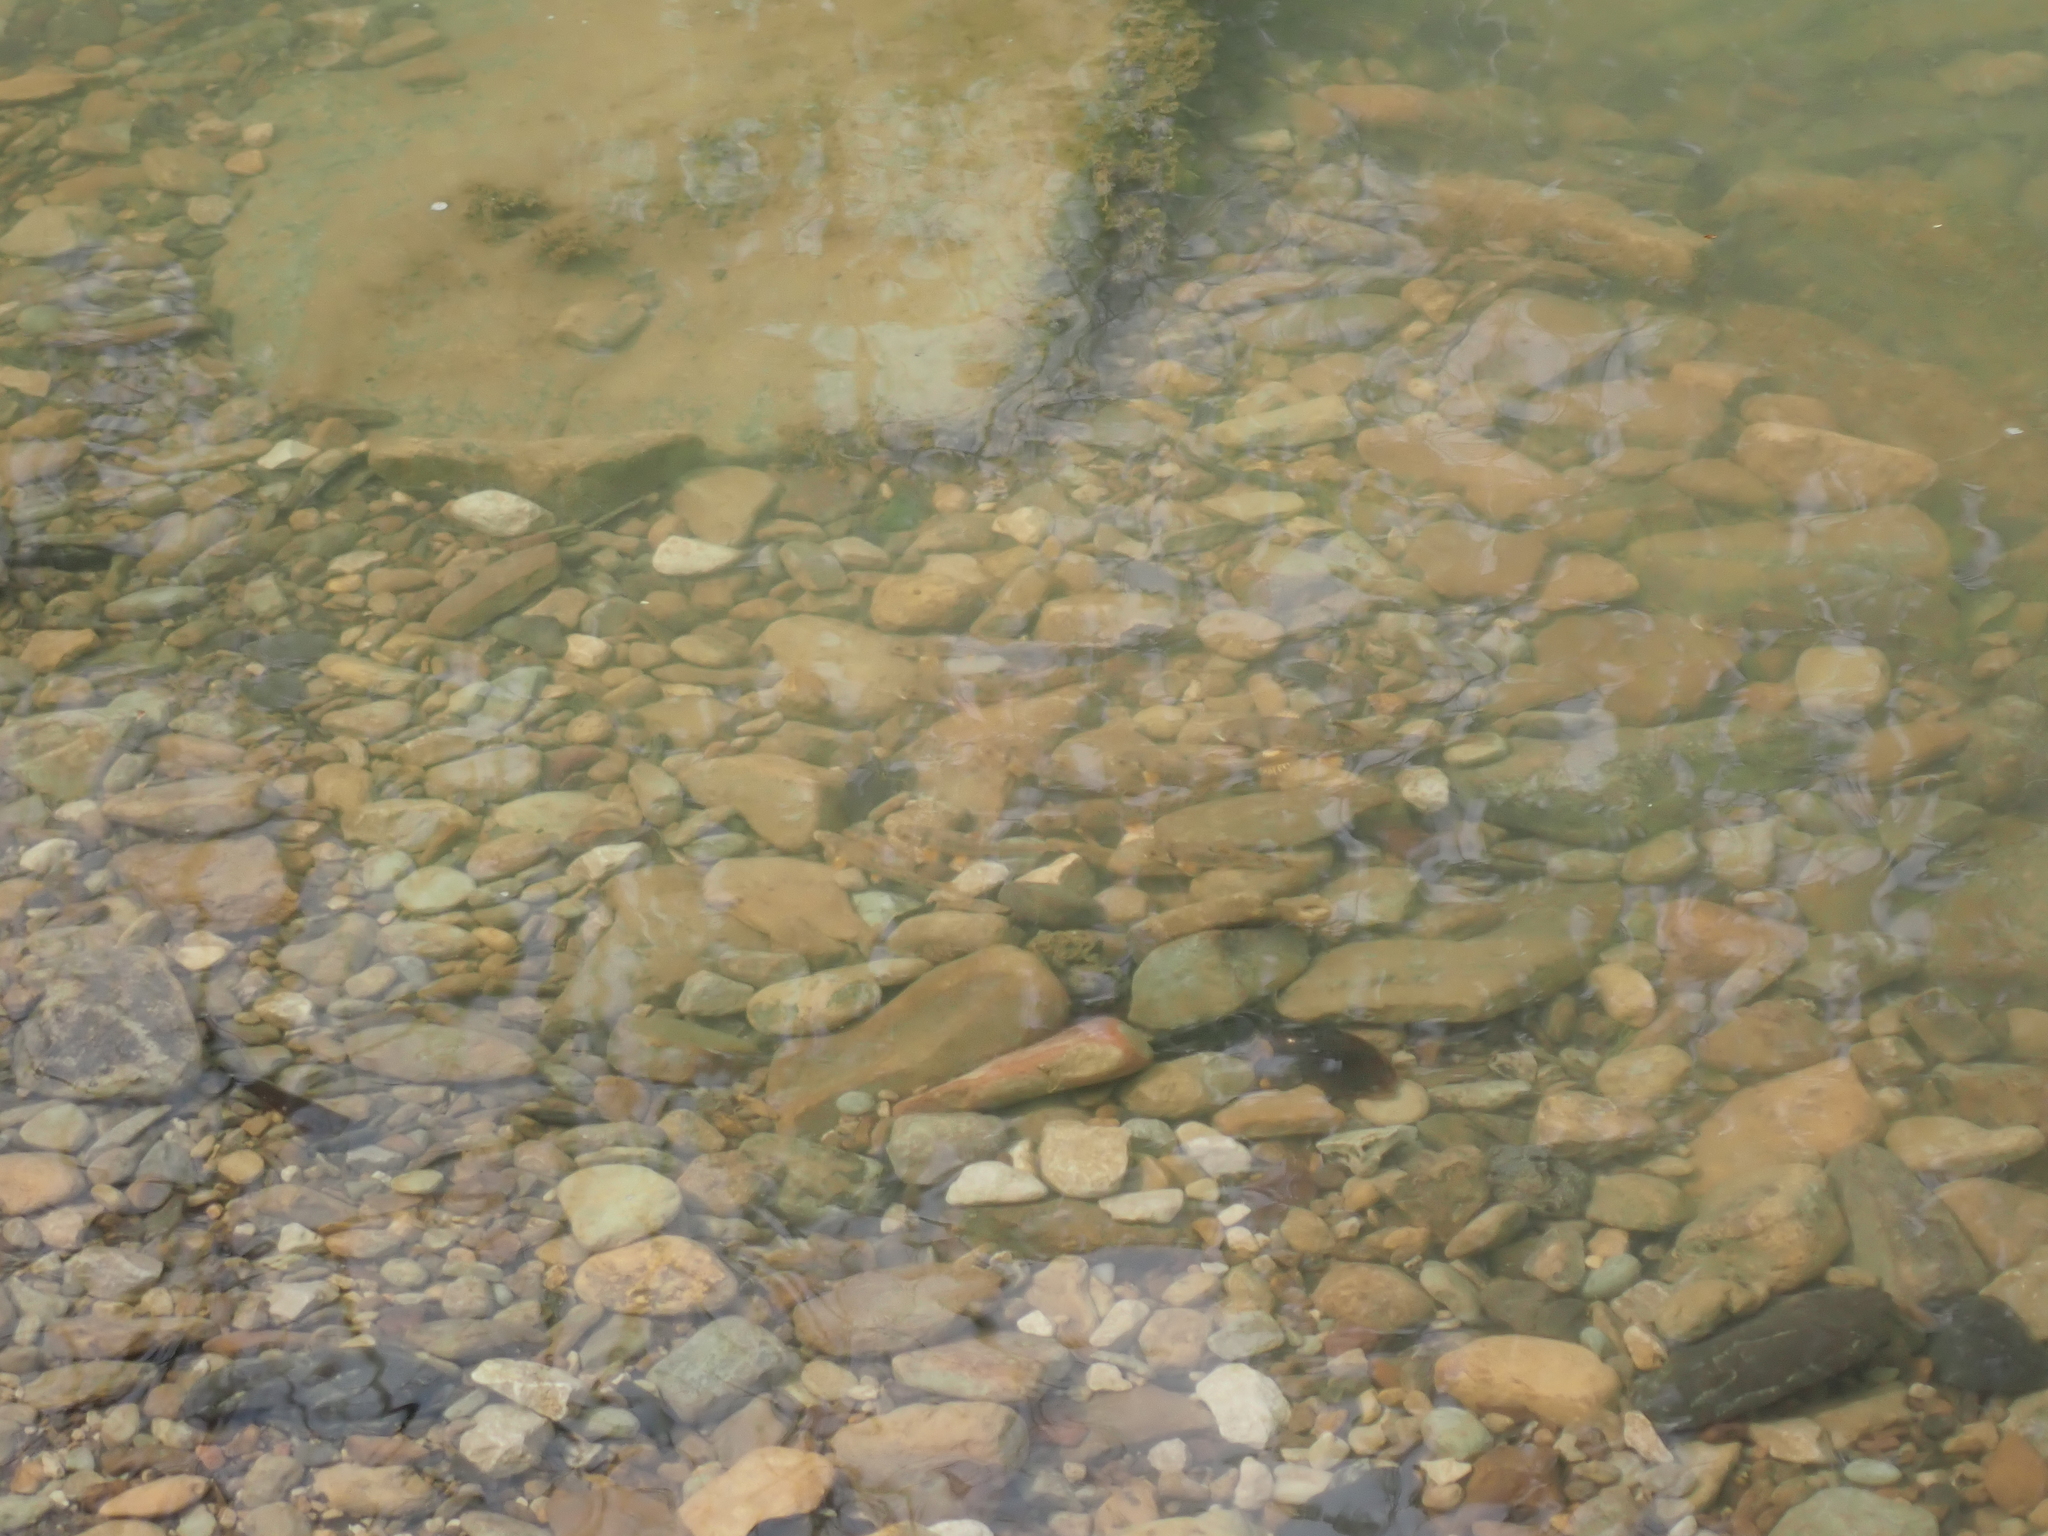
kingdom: Animalia
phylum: Chordata
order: Cypriniformes
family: Cyprinidae
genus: Campostoma
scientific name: Campostoma anomalum
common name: Central stoneroller
